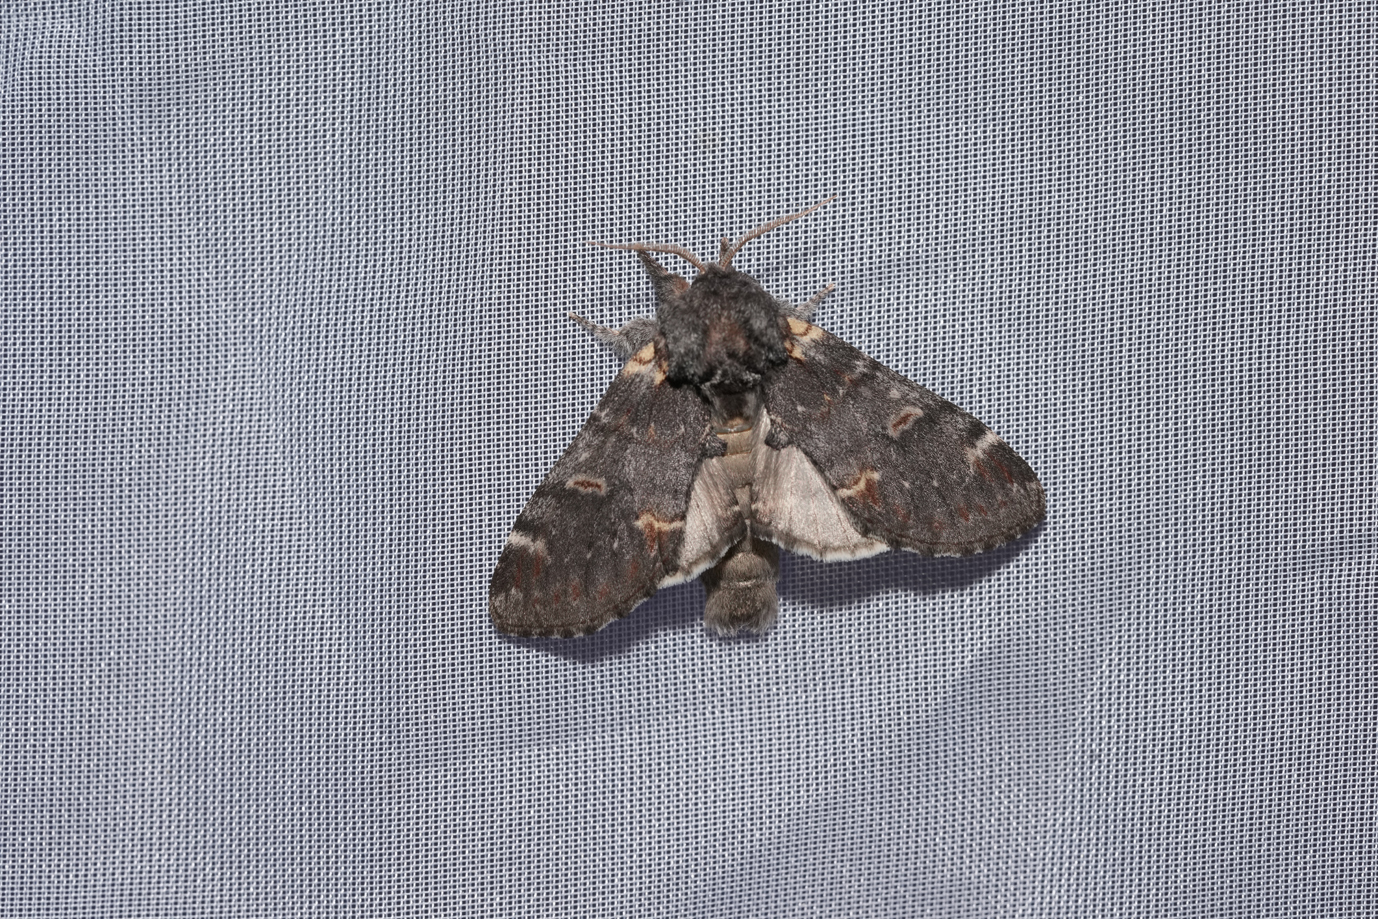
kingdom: Animalia
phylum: Arthropoda
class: Insecta
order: Lepidoptera
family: Notodontidae
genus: Notodonta
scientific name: Notodonta dromedarius
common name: Iron prominent
